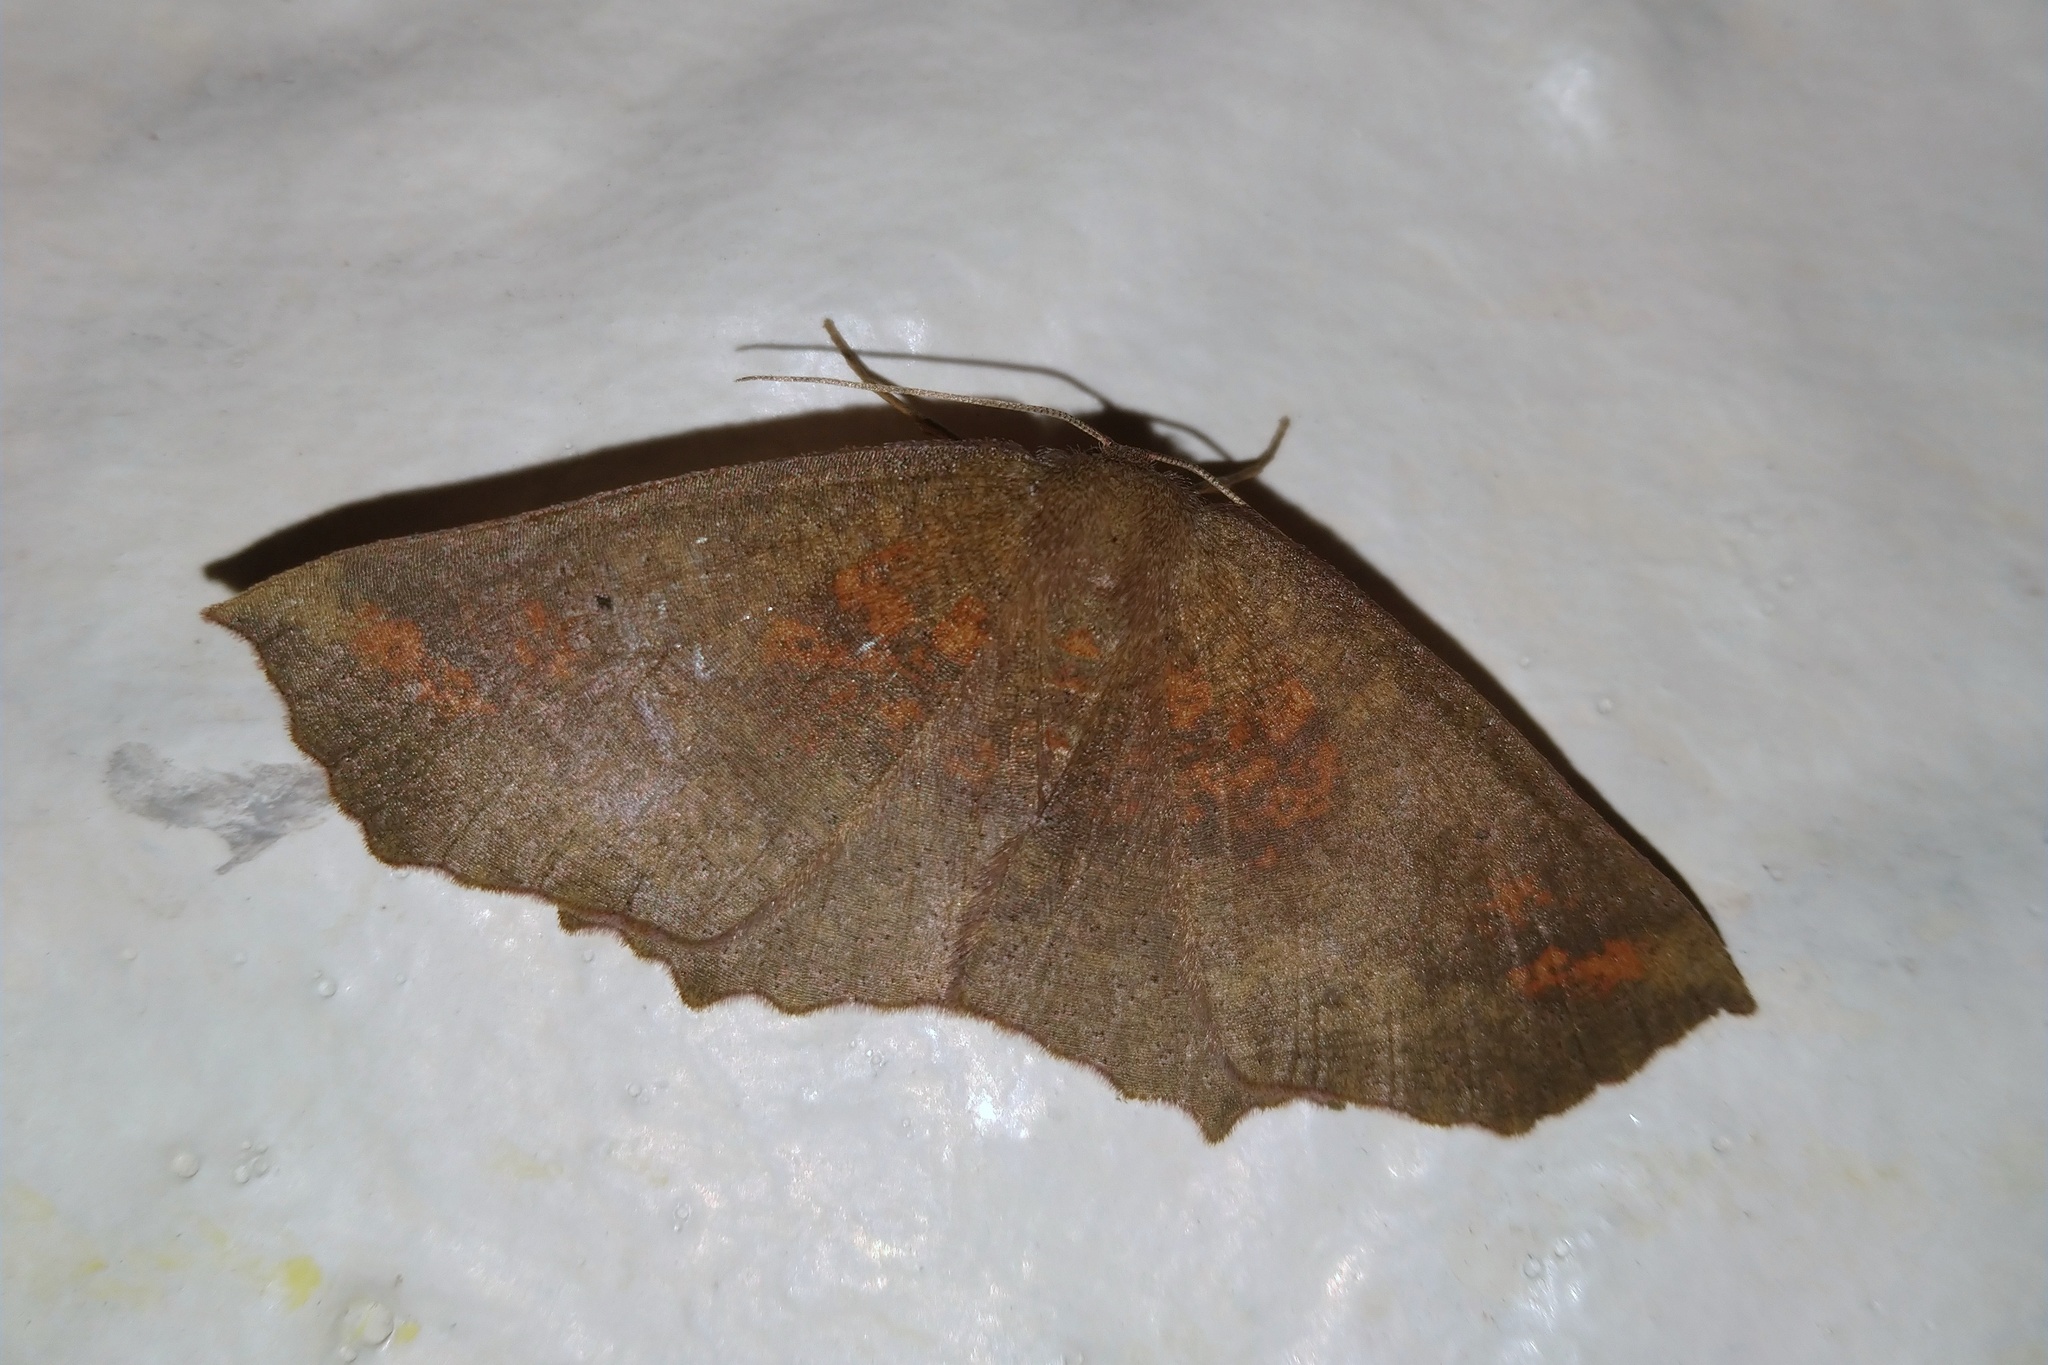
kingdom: Animalia
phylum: Arthropoda
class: Insecta
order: Lepidoptera
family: Geometridae
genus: Xyridacma
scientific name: Xyridacma ustaria
